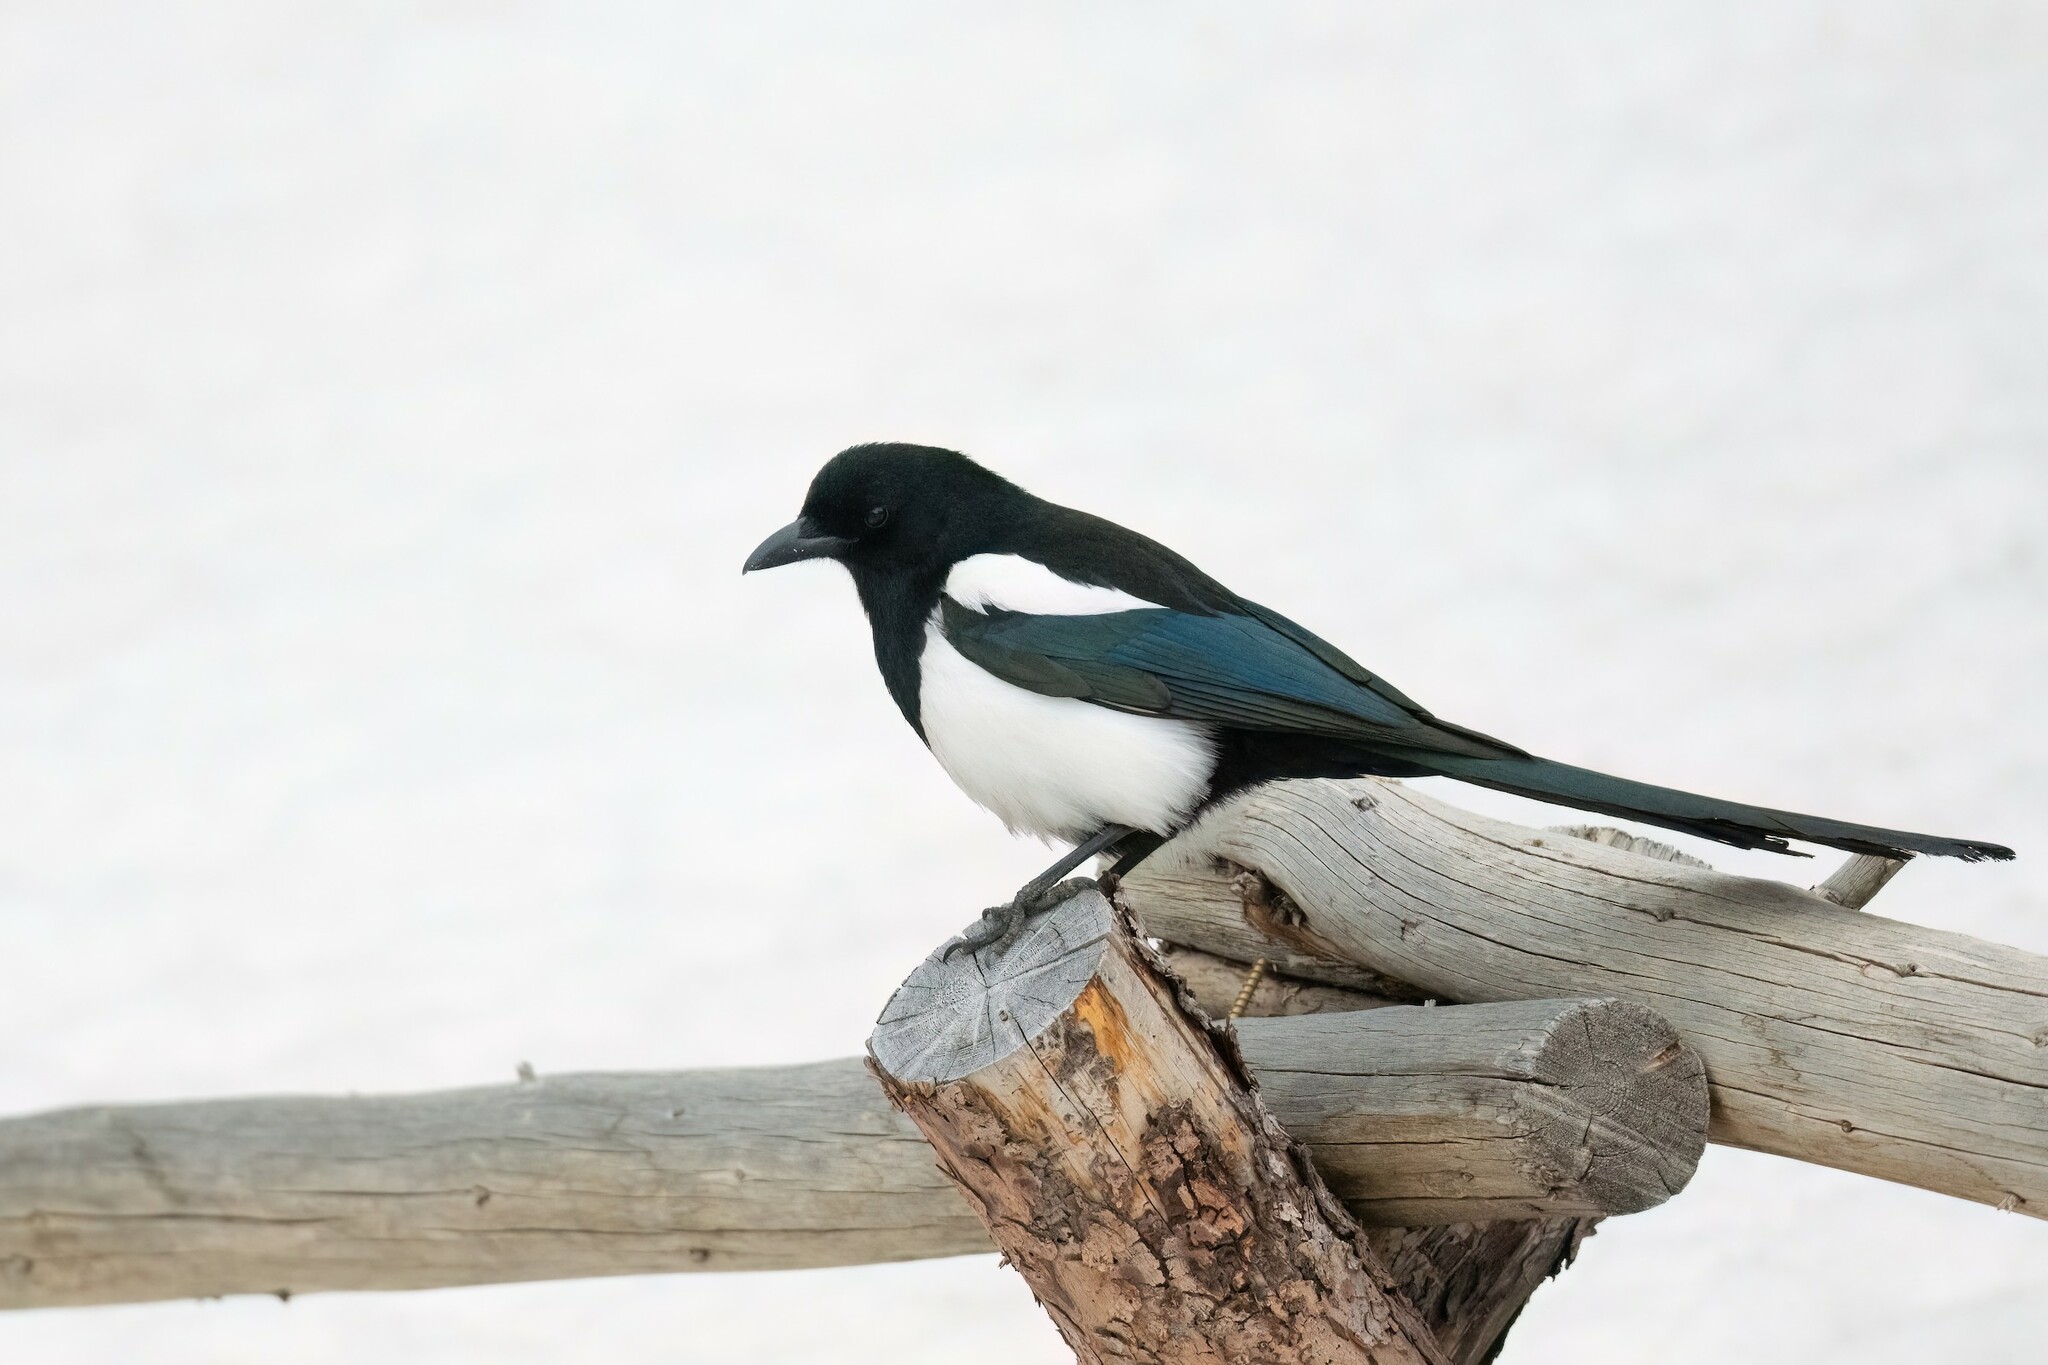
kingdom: Animalia
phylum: Chordata
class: Aves
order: Passeriformes
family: Corvidae
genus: Pica
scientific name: Pica hudsonia
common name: Black-billed magpie
